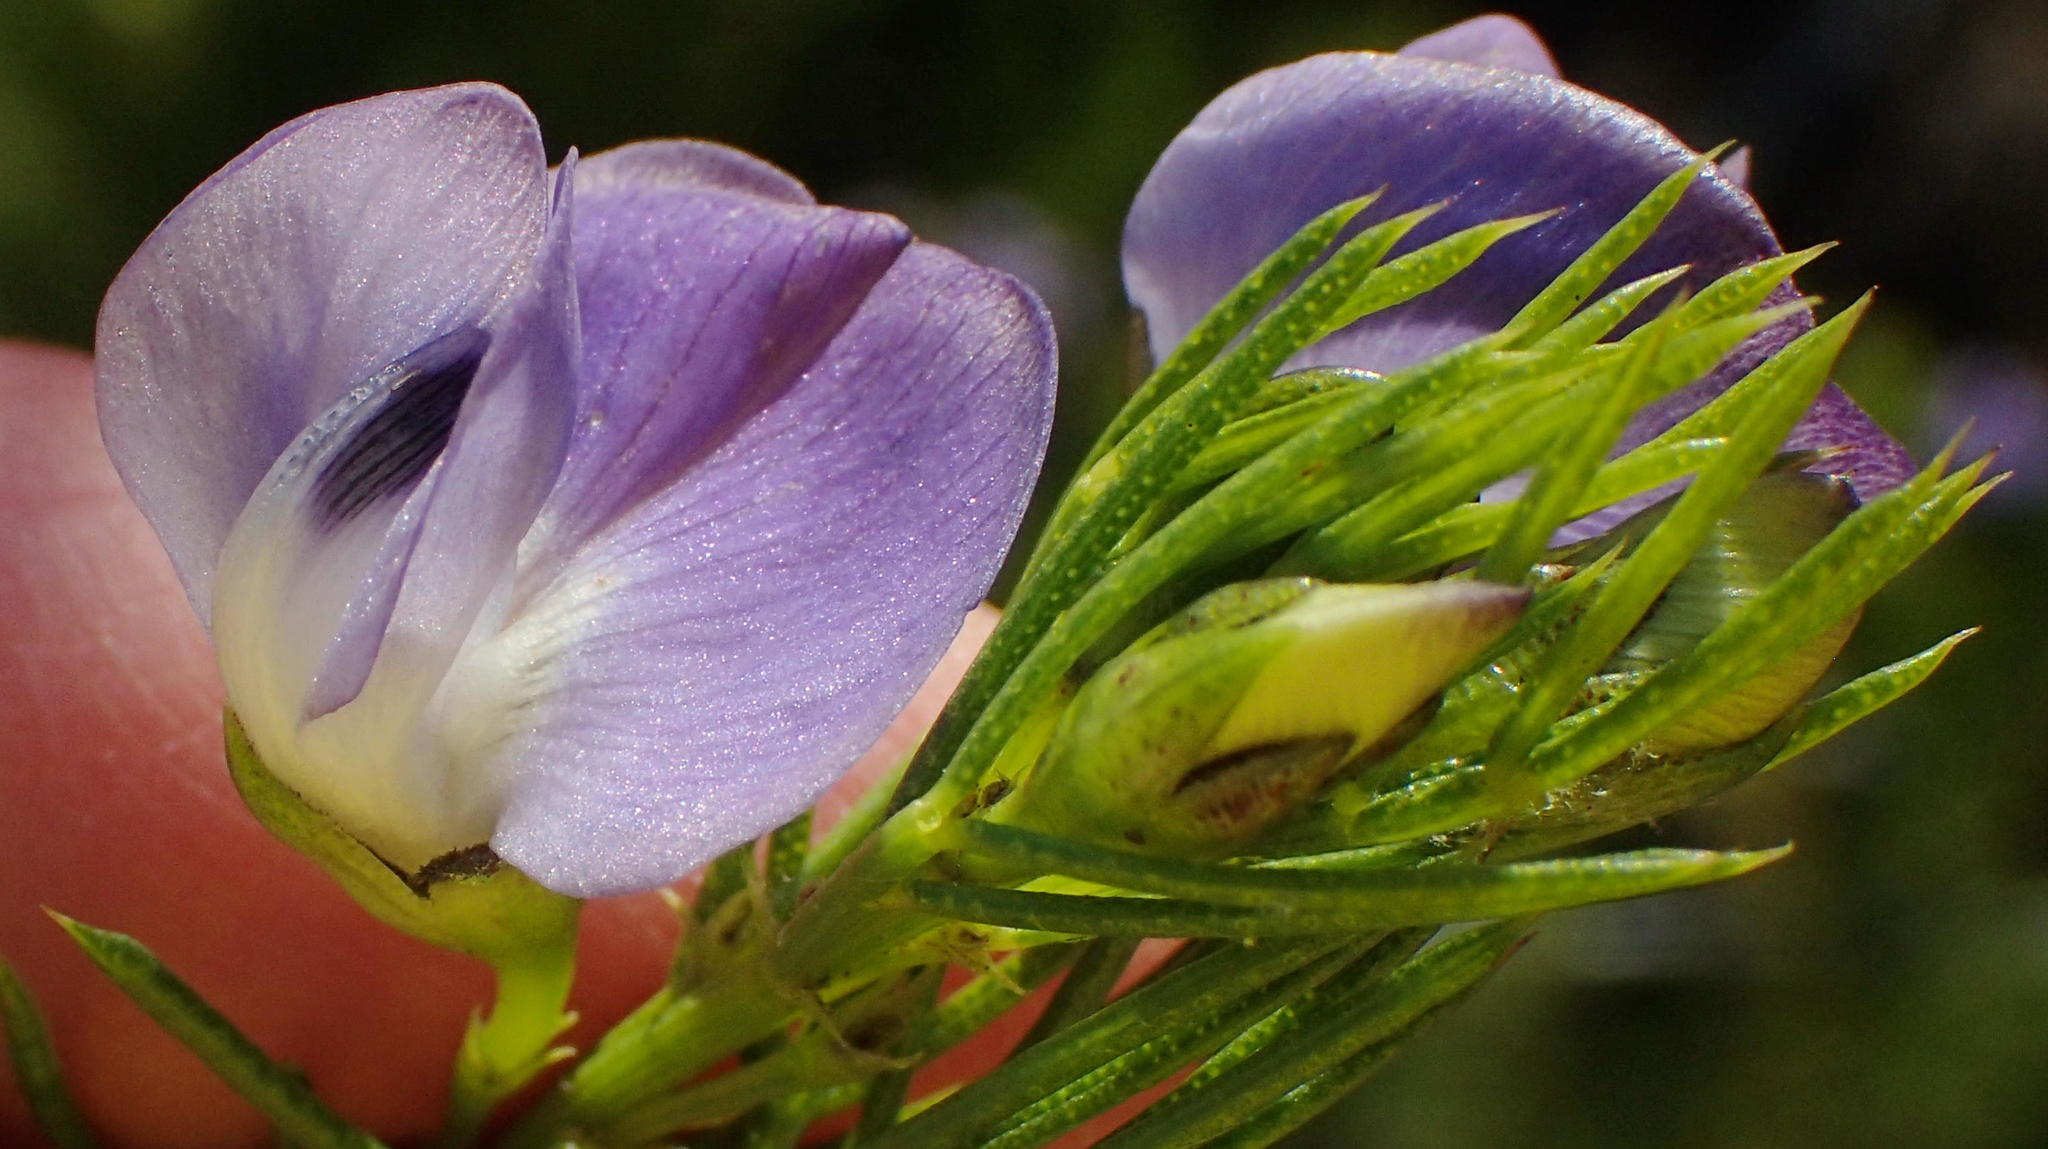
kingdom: Plantae
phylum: Tracheophyta
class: Magnoliopsida
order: Fabales
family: Fabaceae
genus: Psoralea
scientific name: Psoralea laevigata
